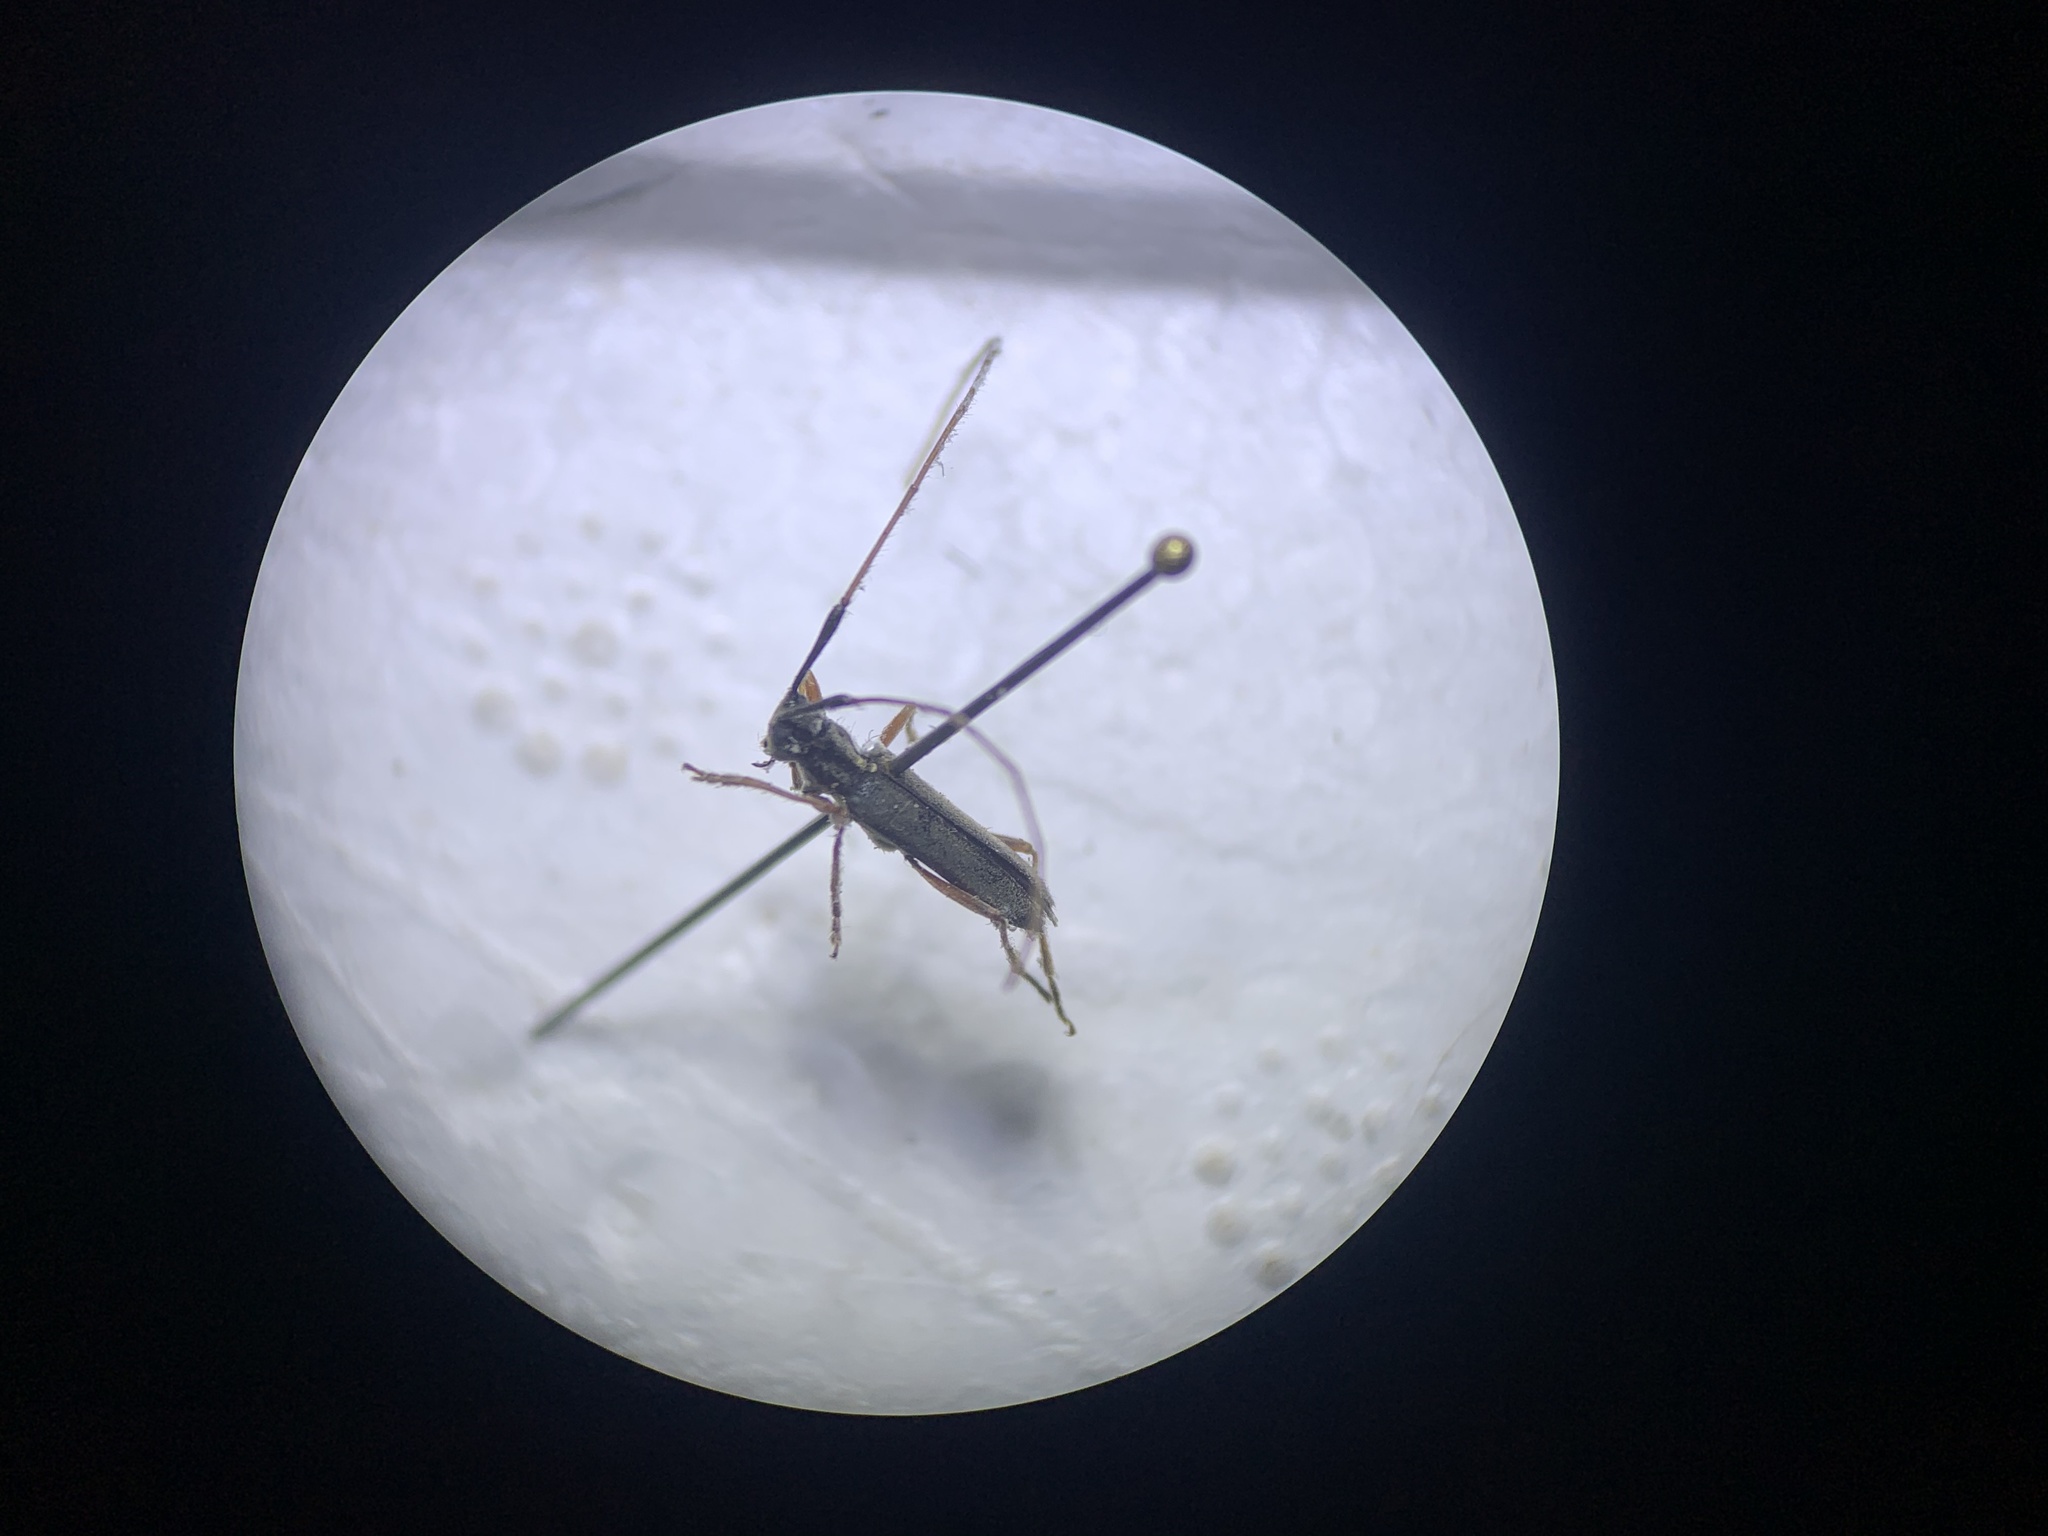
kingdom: Animalia
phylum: Arthropoda
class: Insecta
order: Coleoptera
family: Cerambycidae
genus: Grammopsoides
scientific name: Grammopsoides tenuicornis
